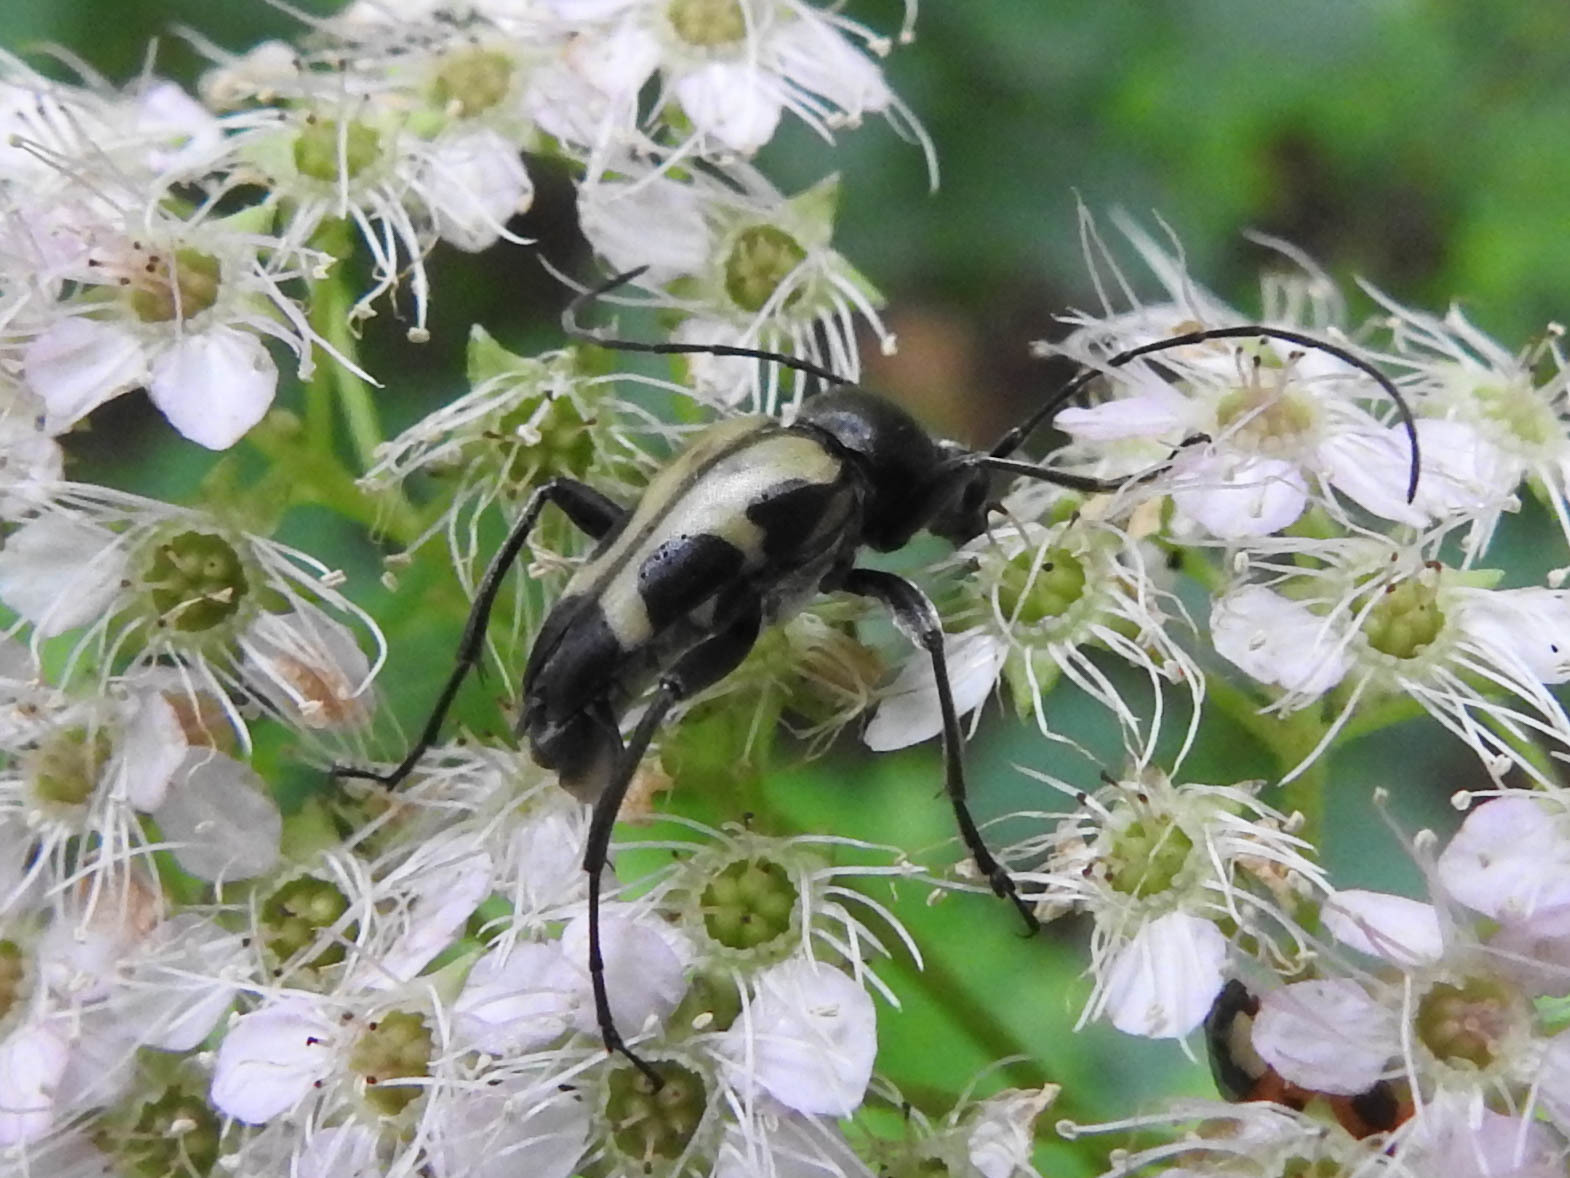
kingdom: Animalia
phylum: Arthropoda
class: Insecta
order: Coleoptera
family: Cerambycidae
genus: Judolia
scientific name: Judolia cordifera
